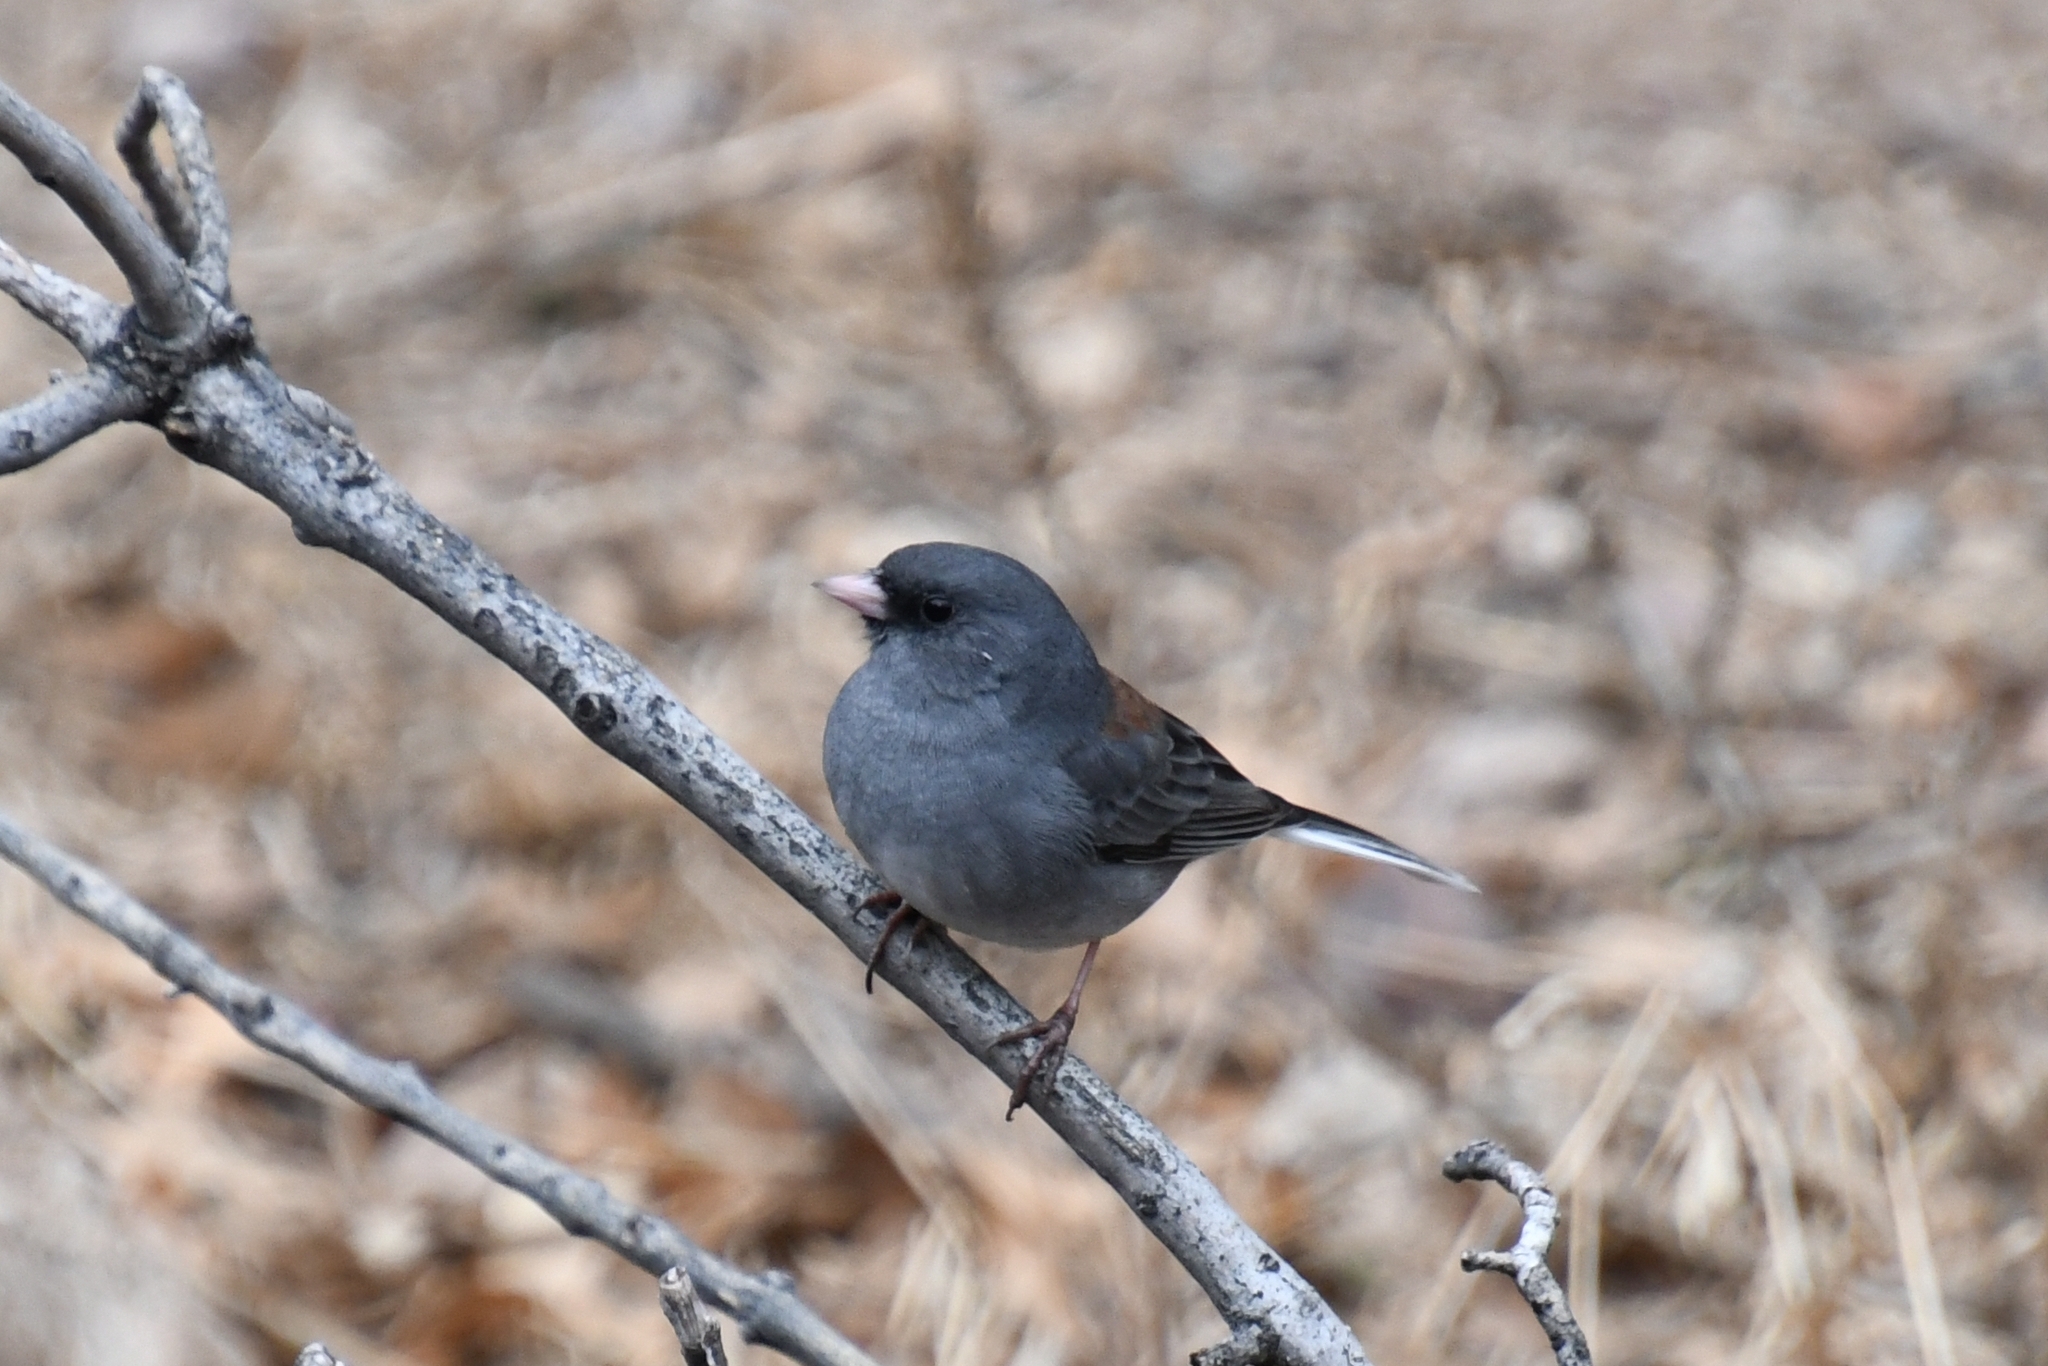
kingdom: Animalia
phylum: Chordata
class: Aves
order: Passeriformes
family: Passerellidae
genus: Junco
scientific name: Junco hyemalis
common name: Dark-eyed junco
